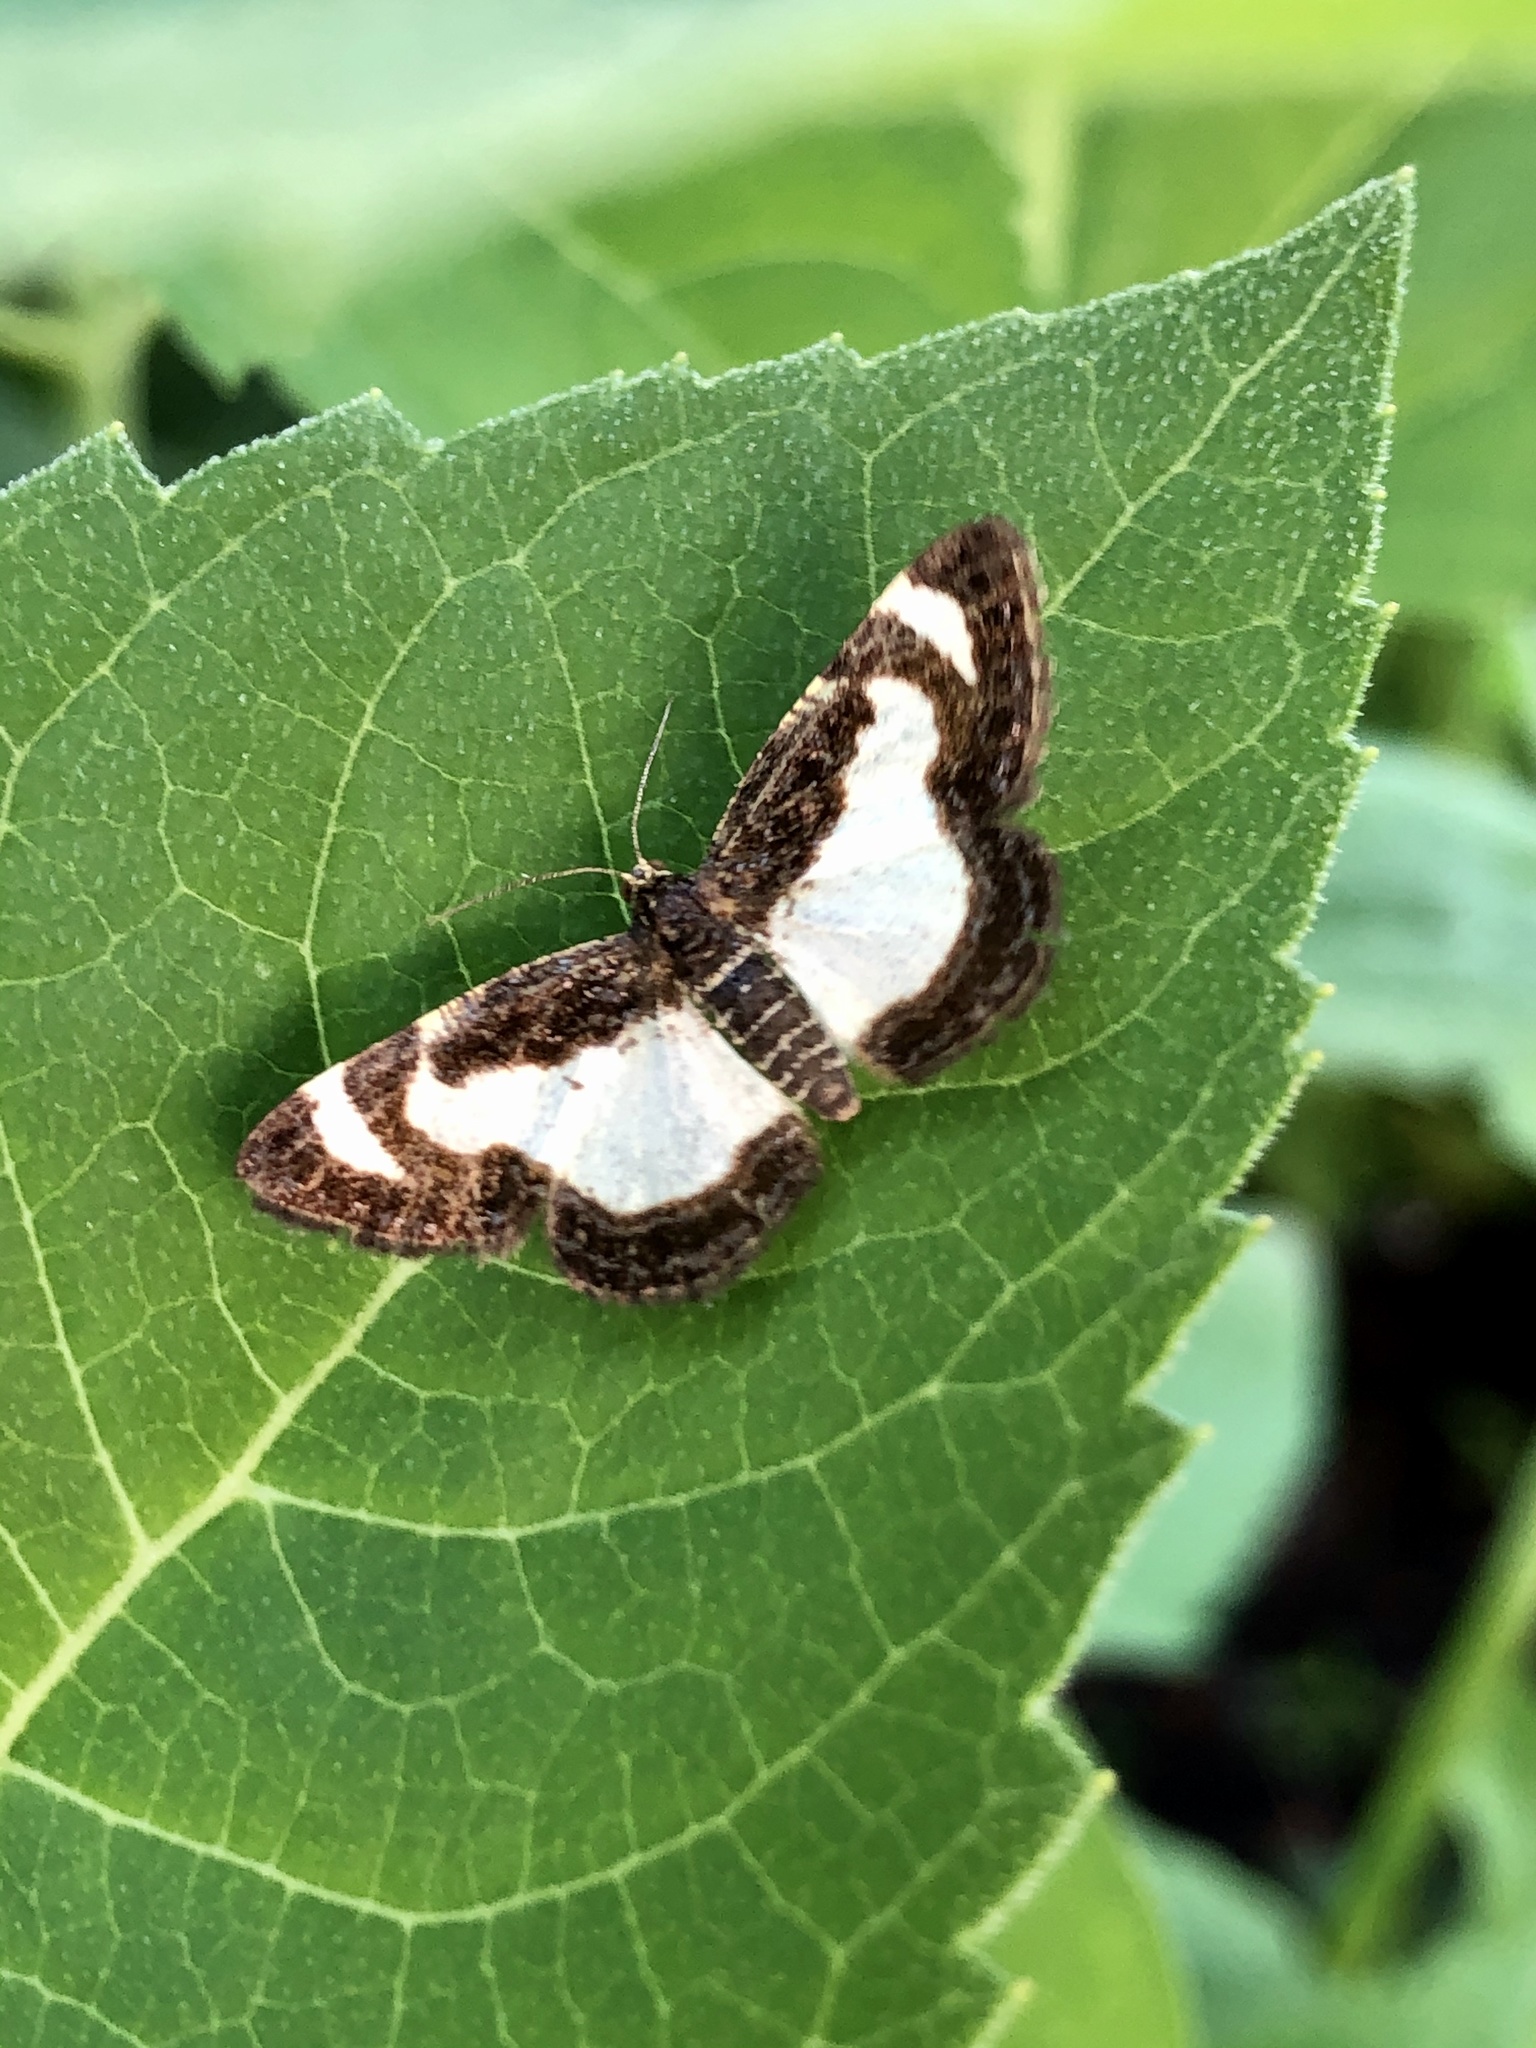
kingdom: Animalia
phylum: Arthropoda
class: Insecta
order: Lepidoptera
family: Geometridae
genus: Heliomata
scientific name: Heliomata cycladata
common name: Common spring moth
